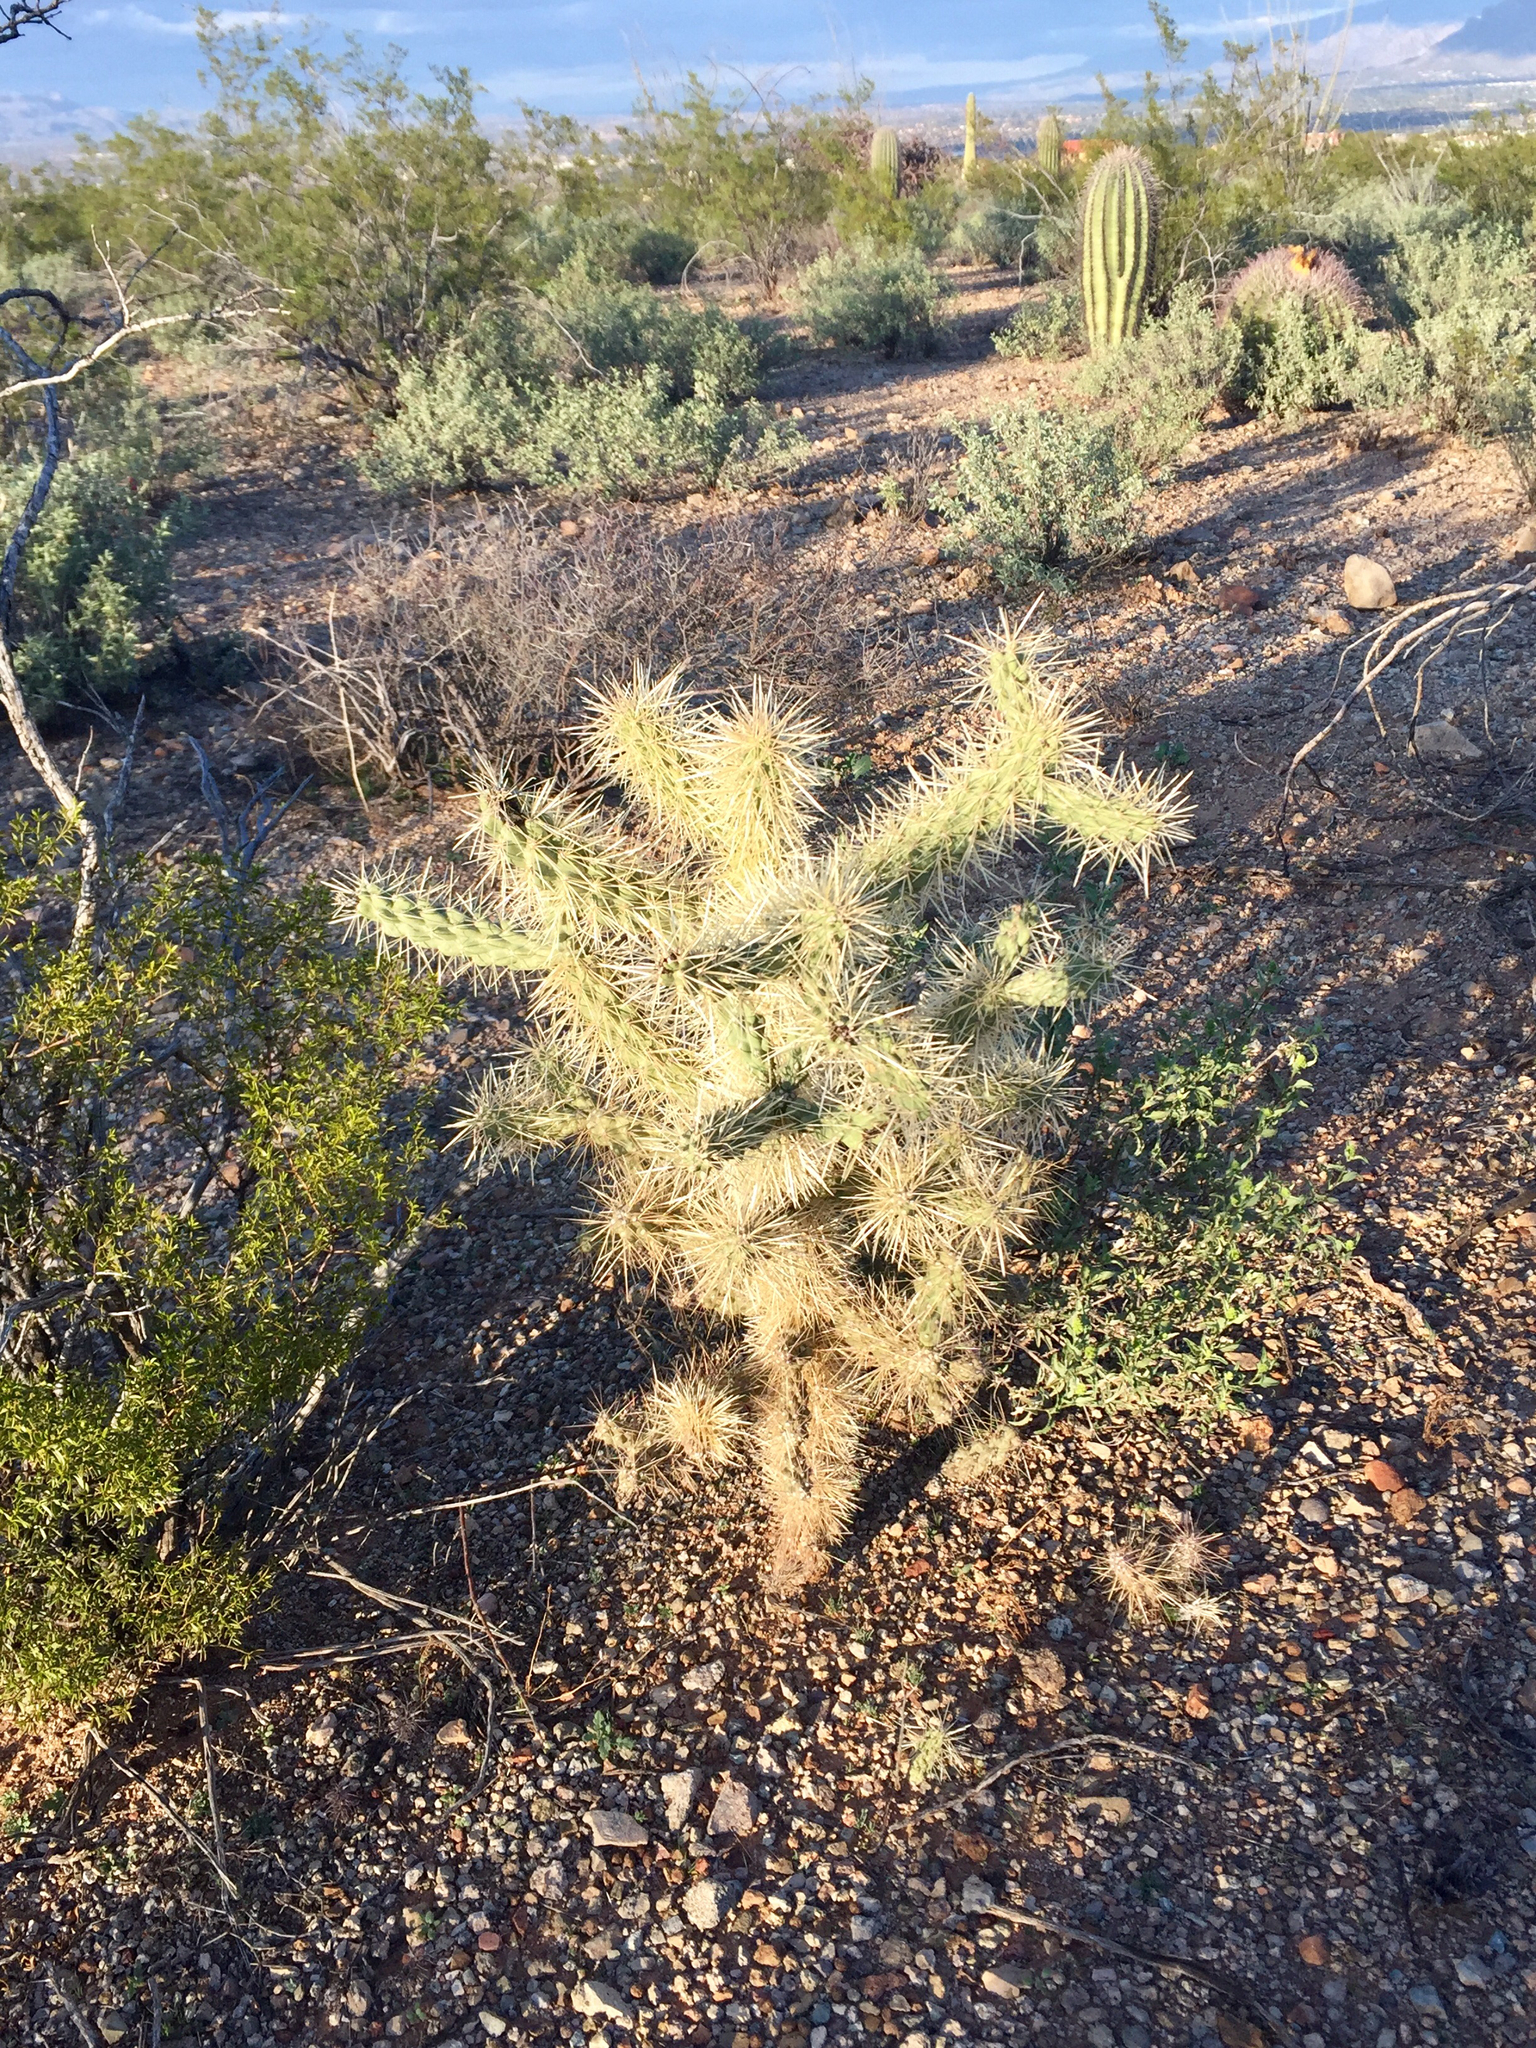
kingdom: Plantae
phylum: Tracheophyta
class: Magnoliopsida
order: Caryophyllales
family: Cactaceae
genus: Cylindropuntia
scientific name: Cylindropuntia fosbergii
